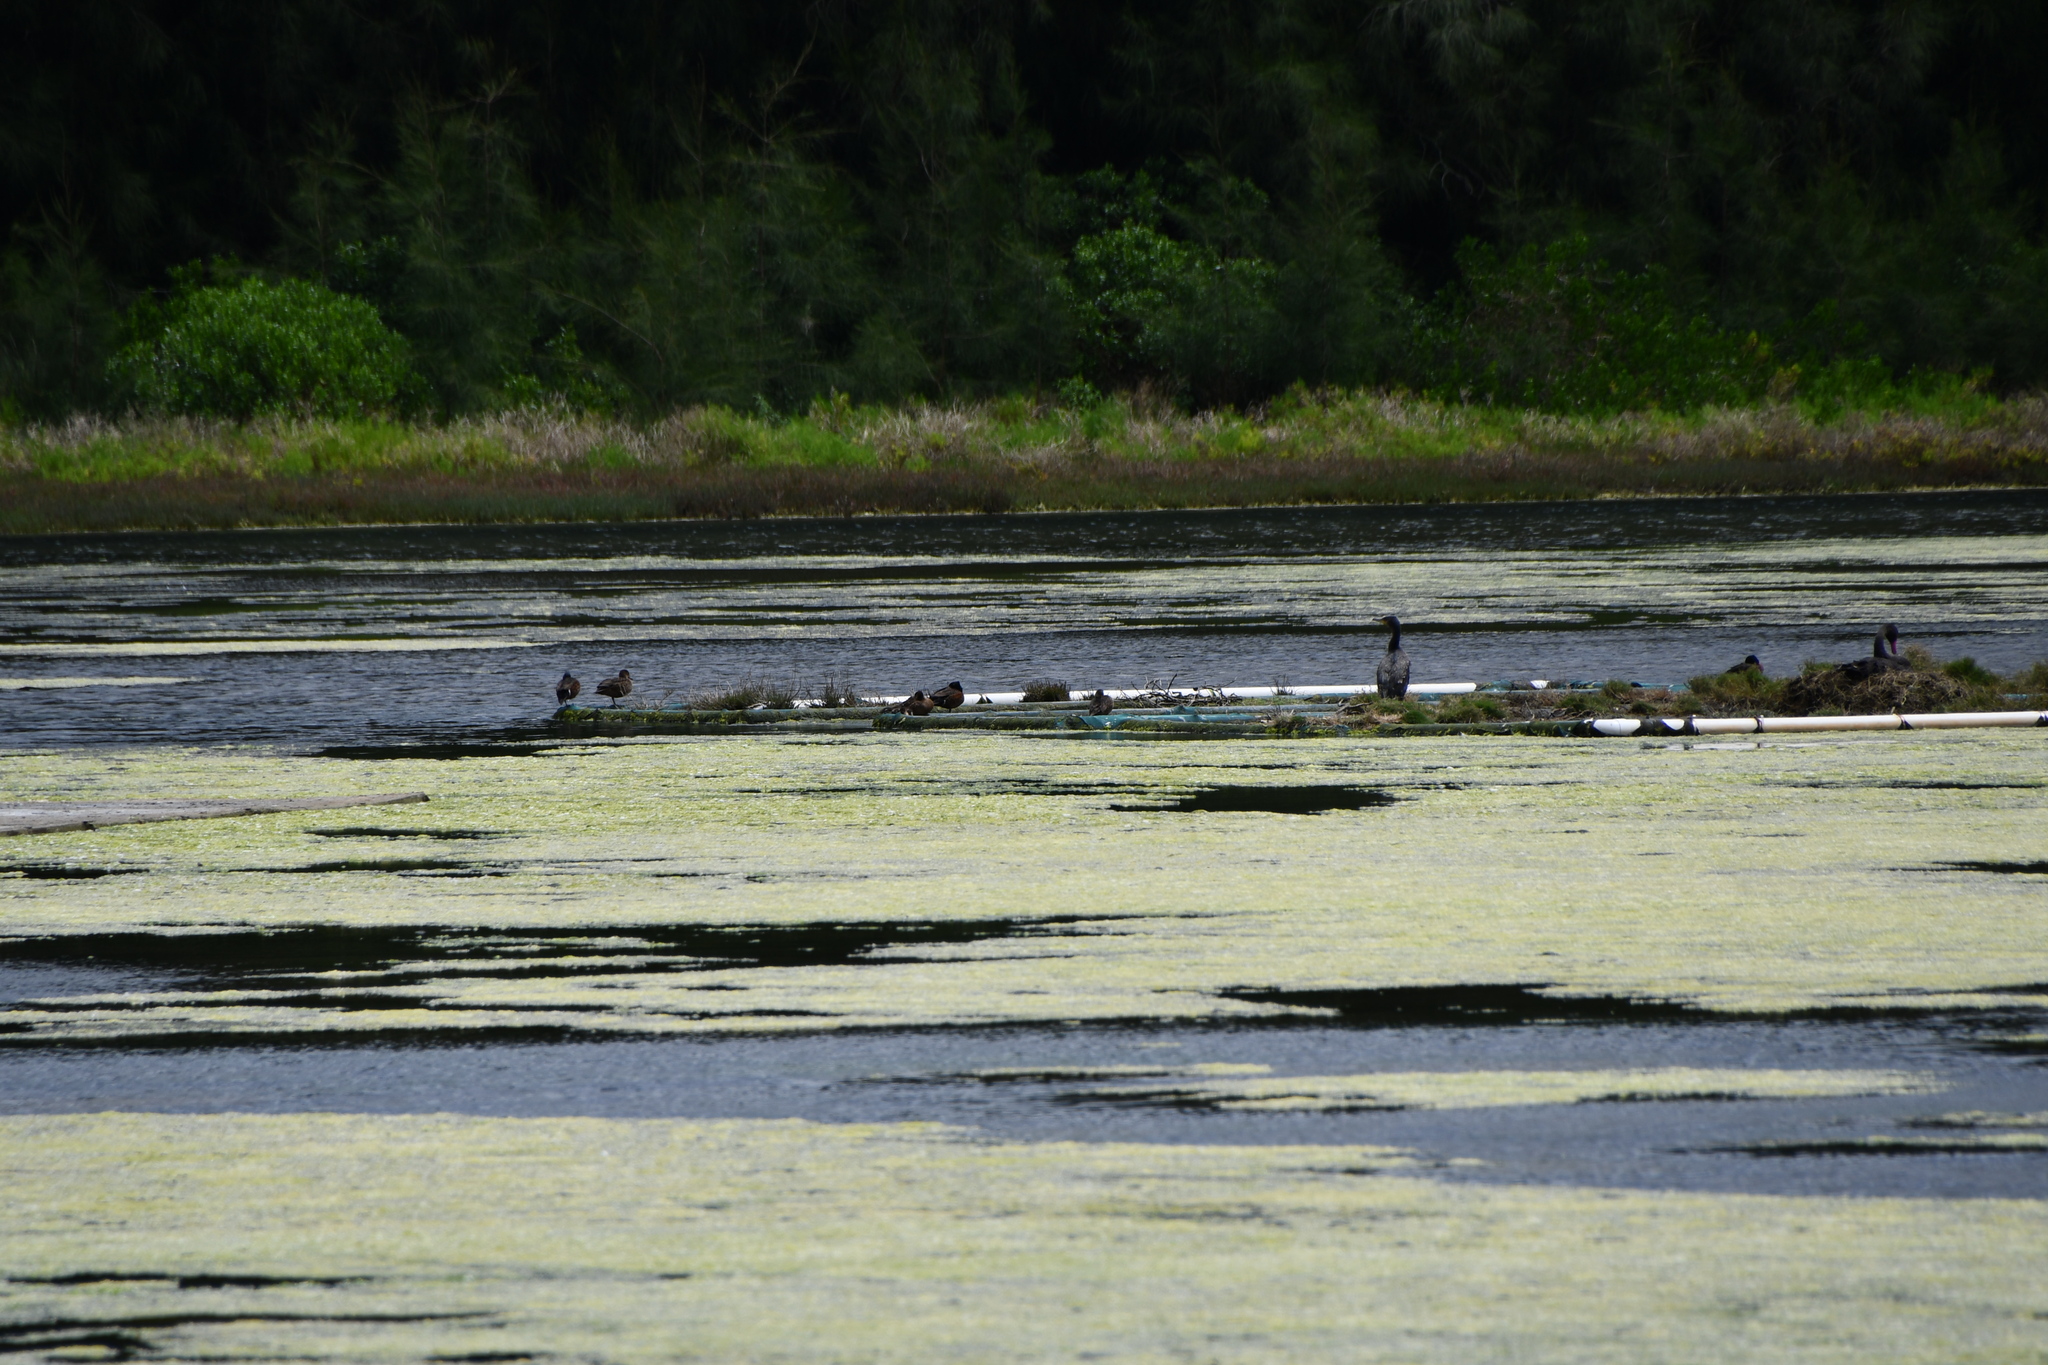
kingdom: Animalia
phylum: Chordata
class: Aves
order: Charadriiformes
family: Charadriidae
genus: Elseyornis
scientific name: Elseyornis melanops
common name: Black-fronted dotterel
